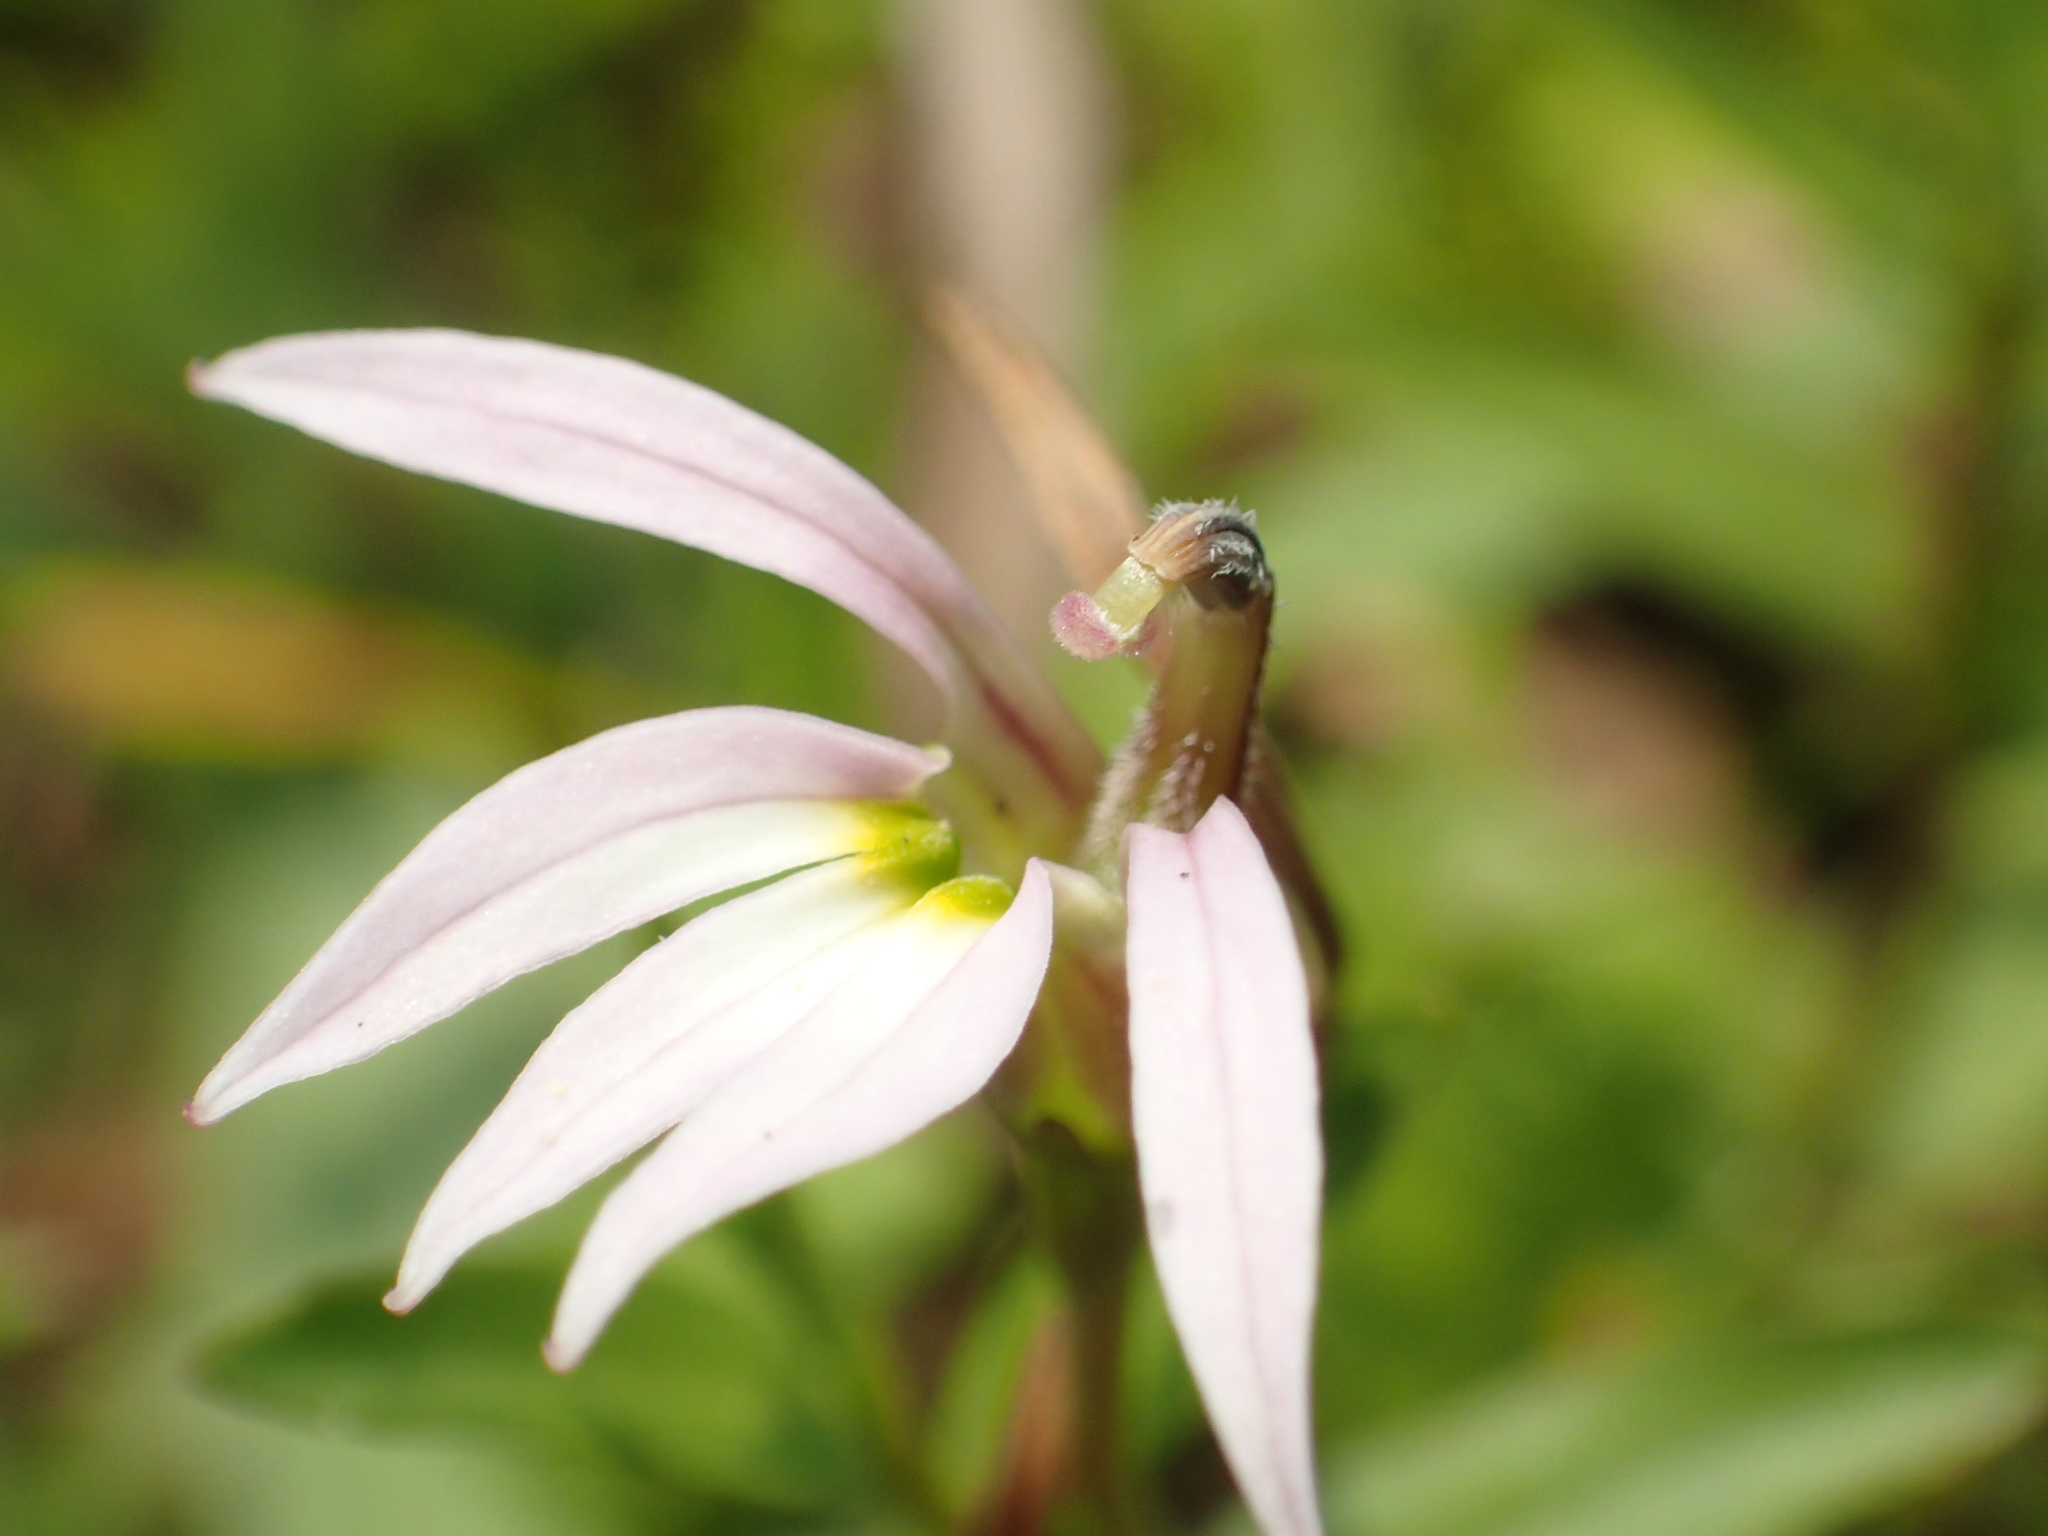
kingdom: Plantae
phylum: Tracheophyta
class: Magnoliopsida
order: Asterales
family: Campanulaceae
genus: Lobelia
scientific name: Lobelia chinensis
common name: Chinese lobelia
